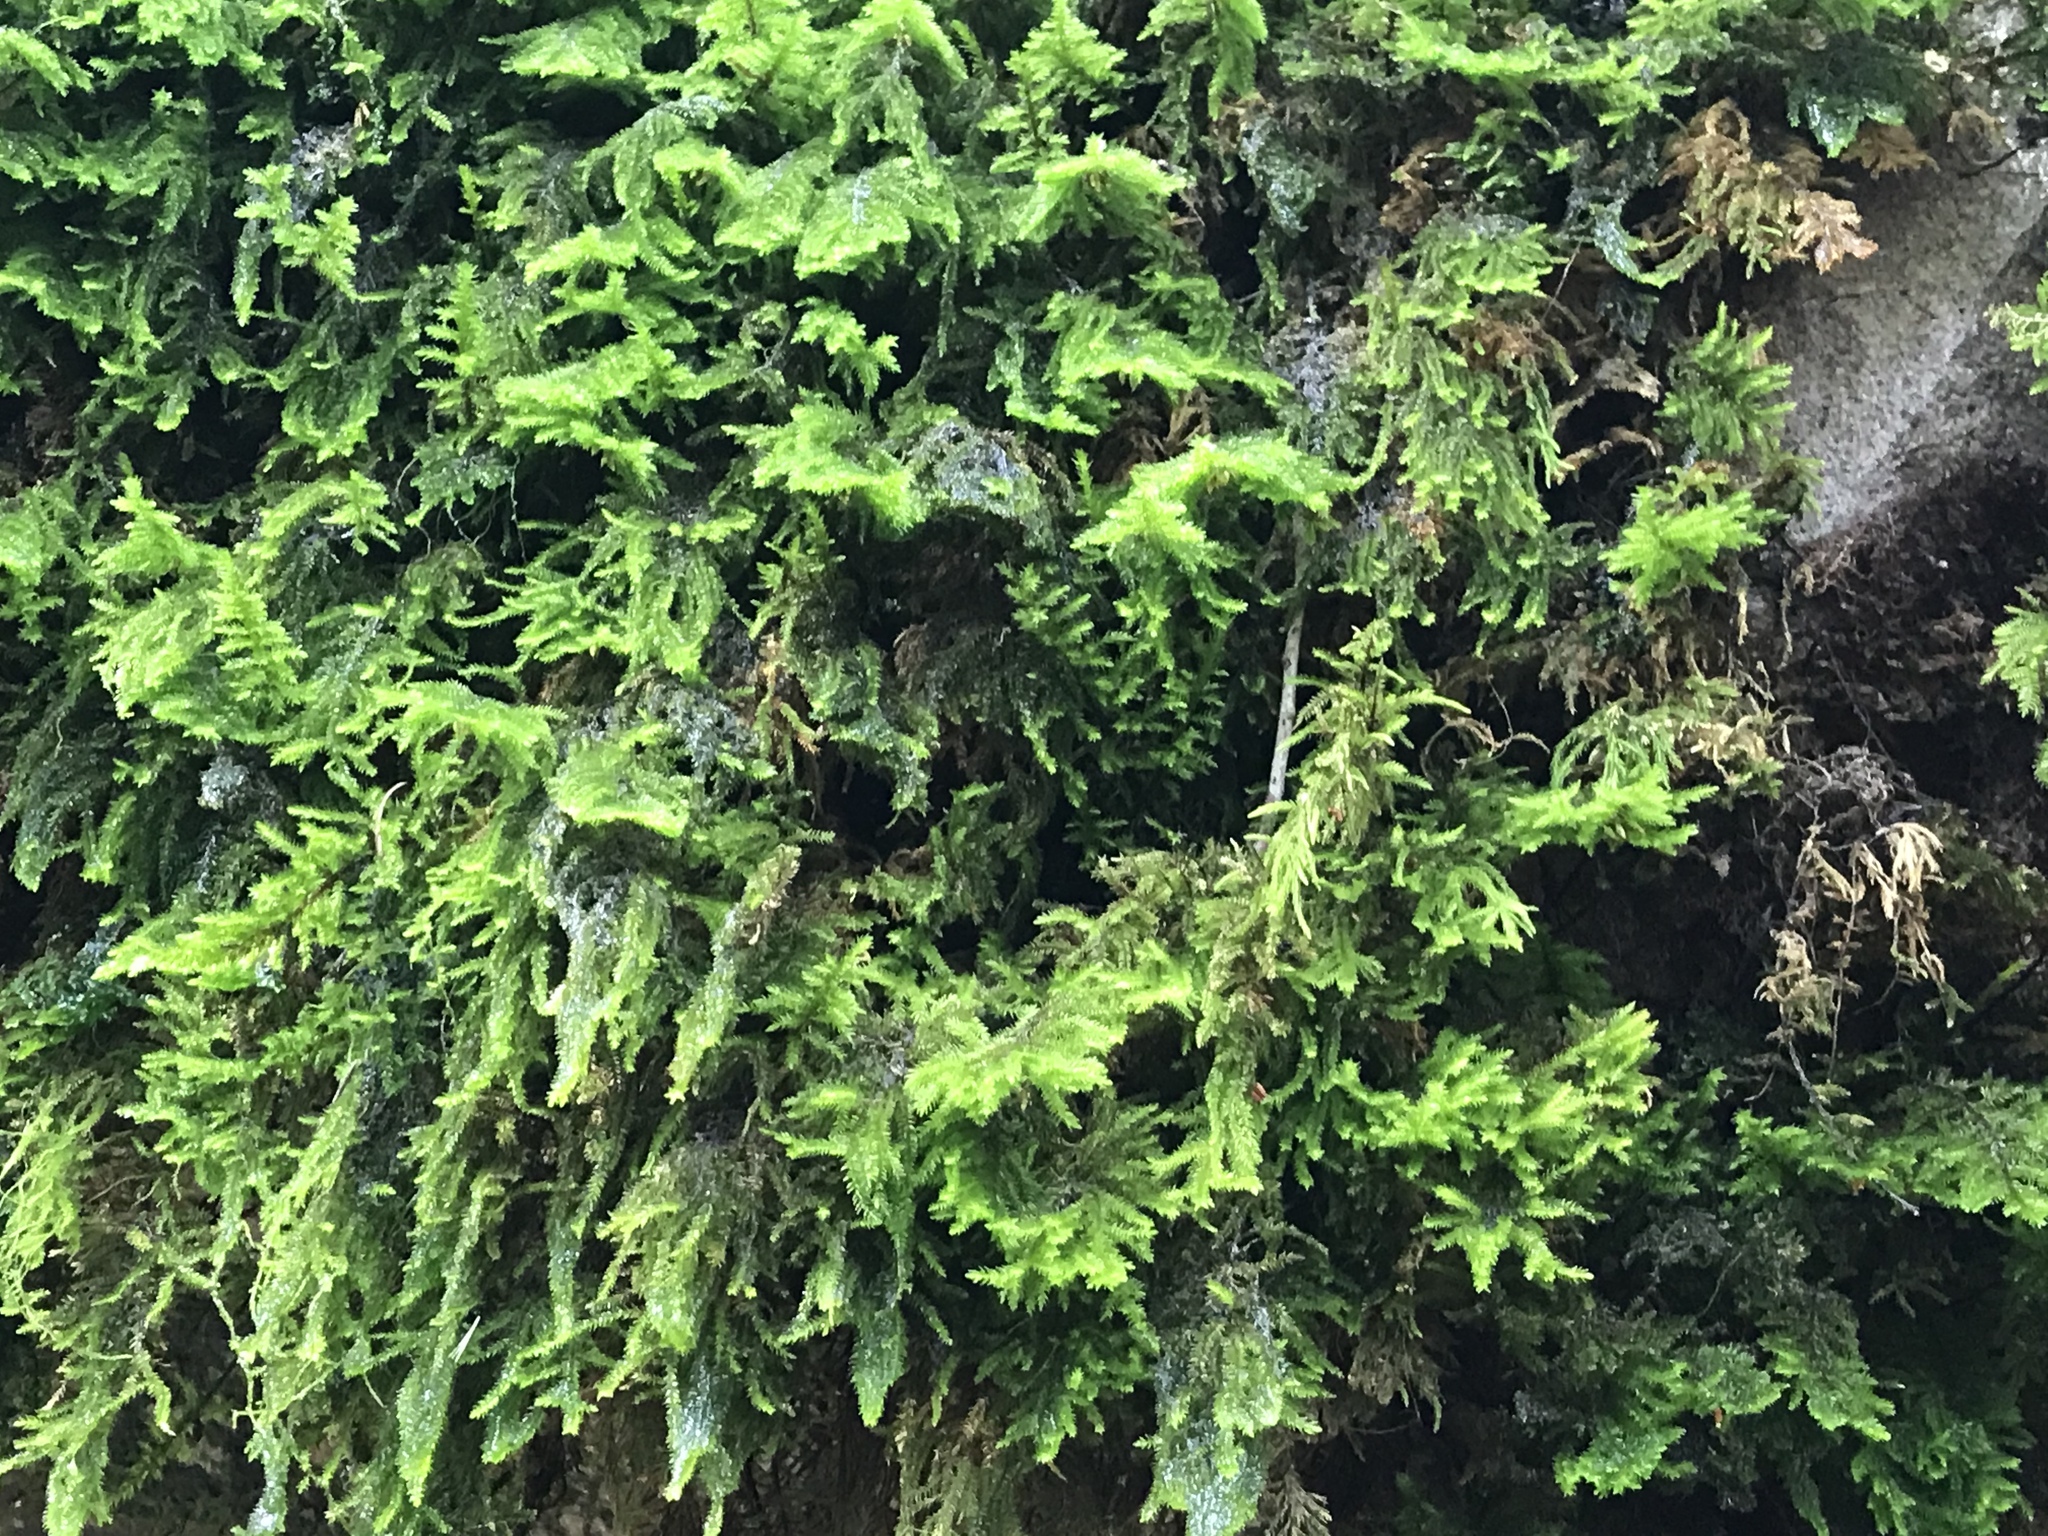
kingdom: Plantae
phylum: Bryophyta
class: Bryopsida
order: Hypnales
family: Cryphaeaceae
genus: Dendroalsia
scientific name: Dendroalsia abietina
